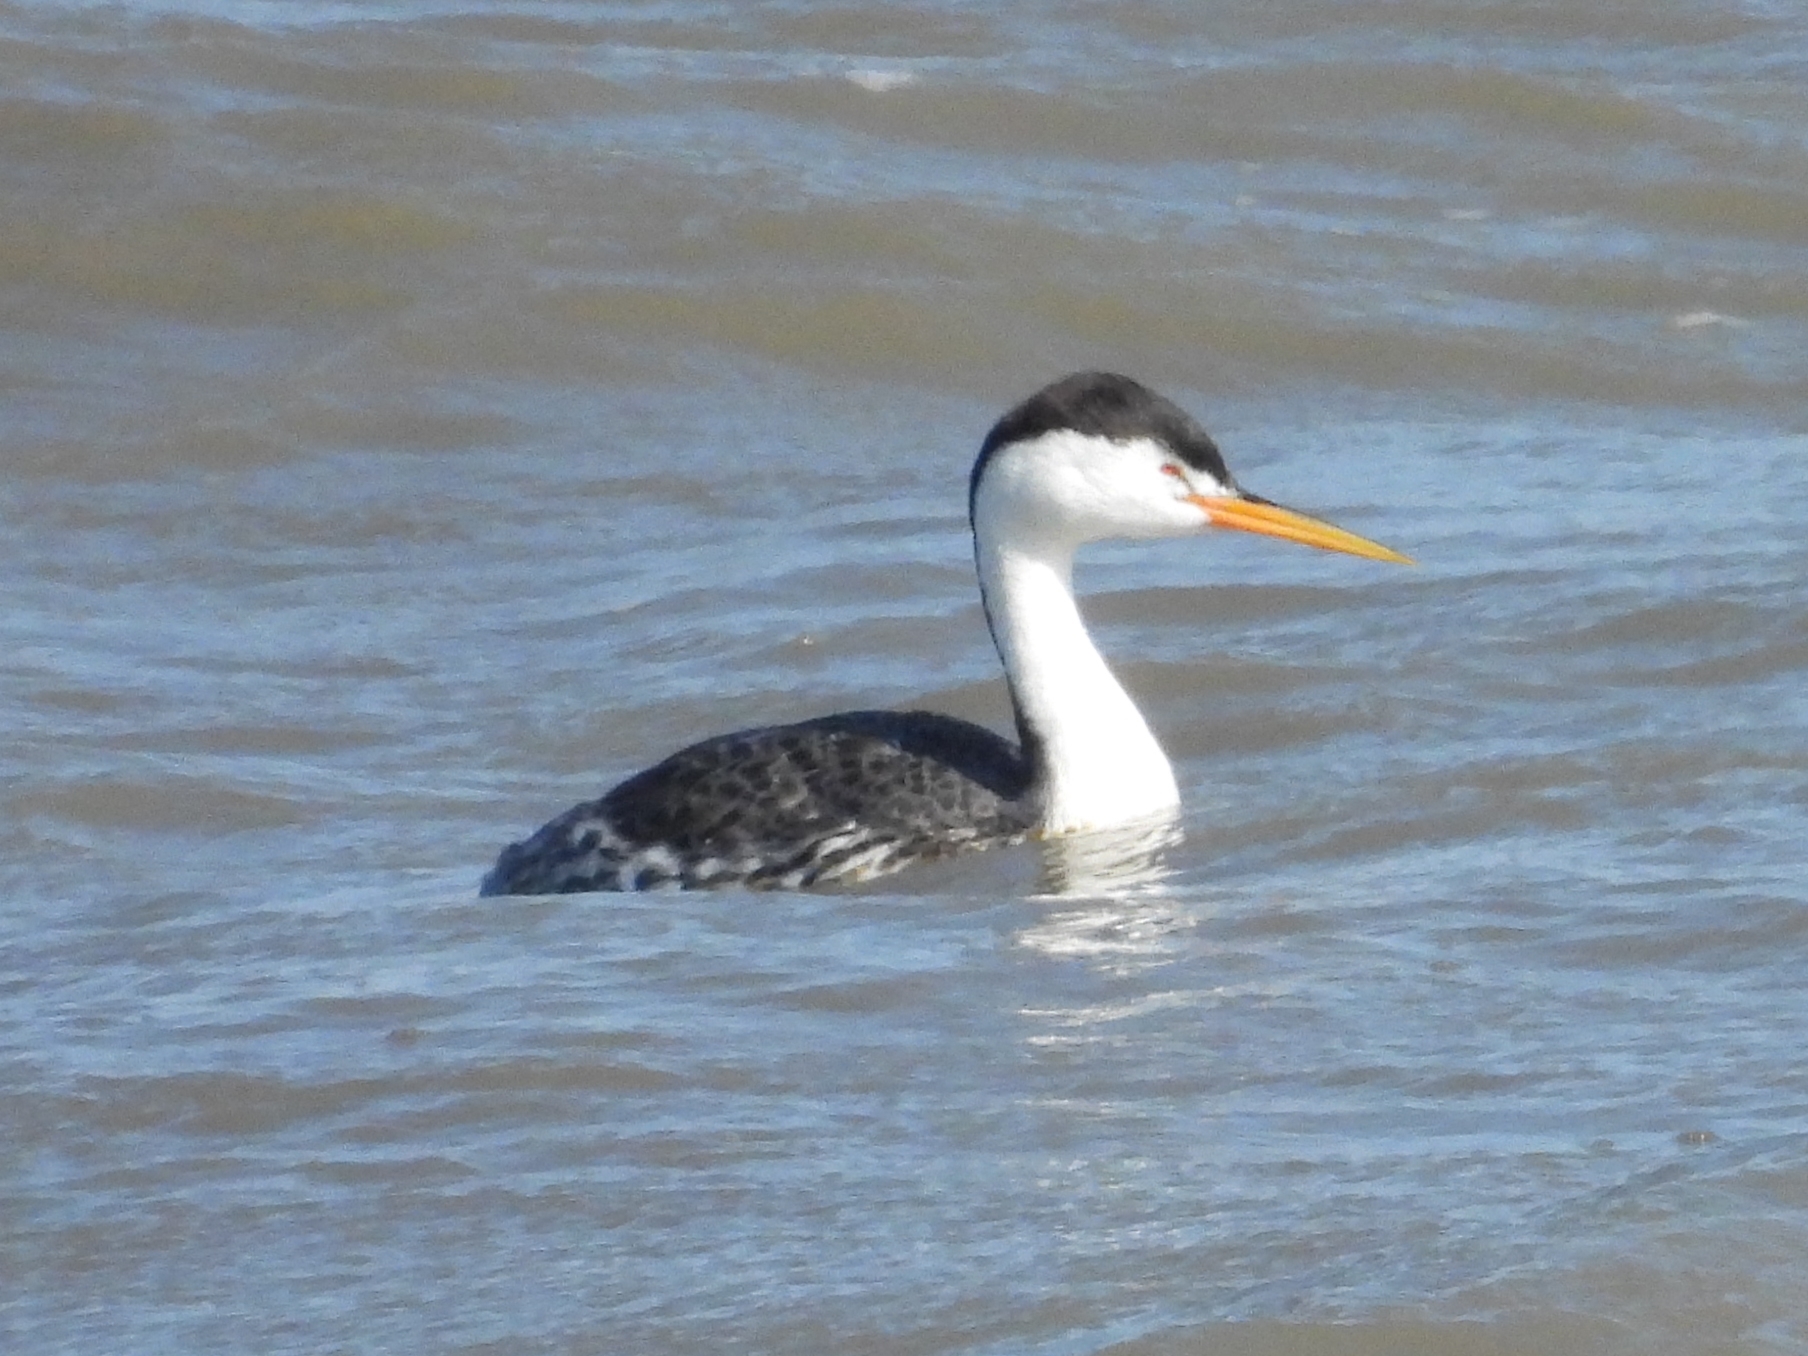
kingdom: Animalia
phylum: Chordata
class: Aves
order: Podicipediformes
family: Podicipedidae
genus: Aechmophorus
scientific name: Aechmophorus clarkii
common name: Clark's grebe
